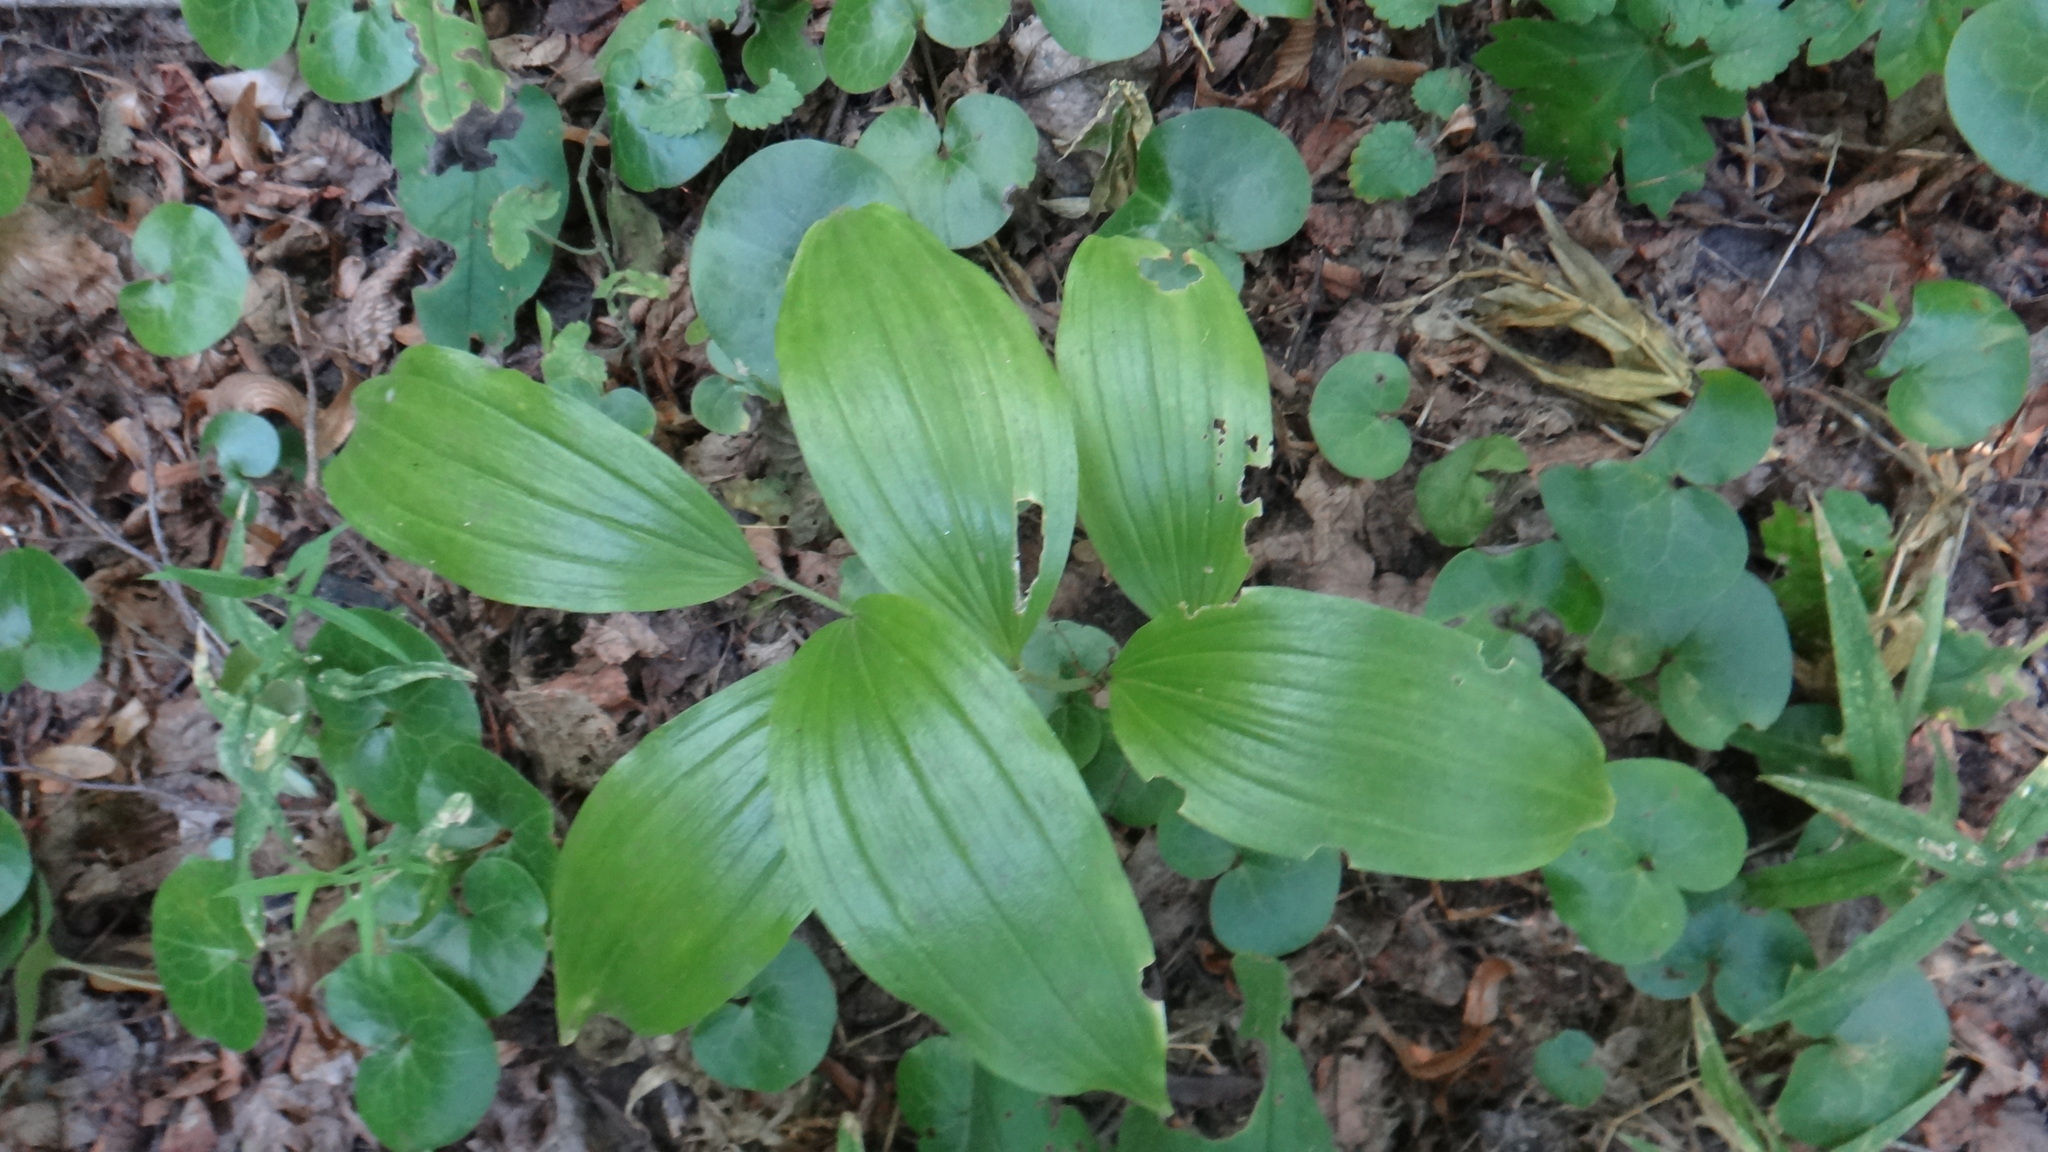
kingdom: Plantae
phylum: Tracheophyta
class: Liliopsida
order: Asparagales
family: Asparagaceae
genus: Polygonatum
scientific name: Polygonatum latifolium
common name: Broadleaf solomon's seal
